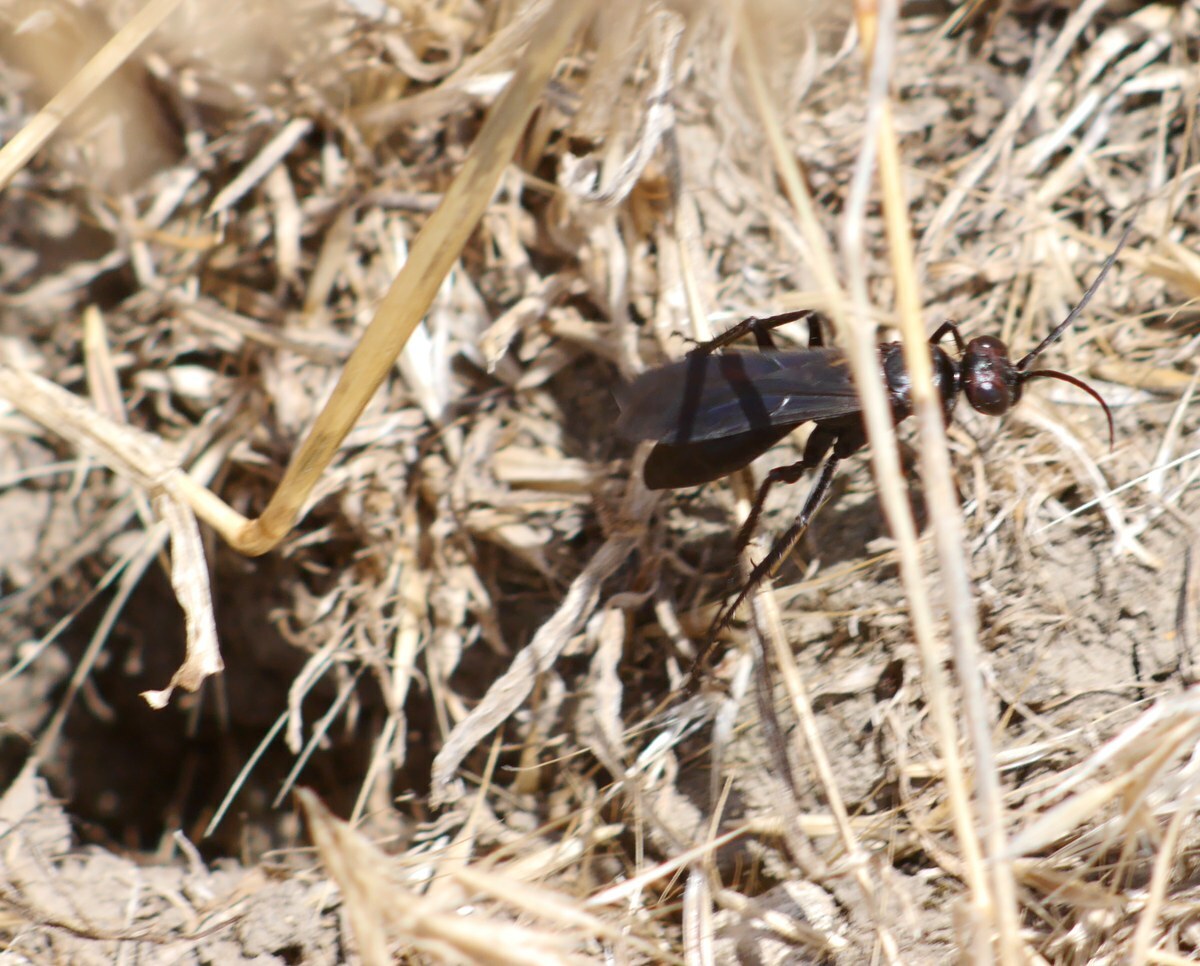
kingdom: Animalia
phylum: Arthropoda
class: Insecta
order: Hymenoptera
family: Pompilidae
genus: Agenioideus
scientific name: Agenioideus excisus
